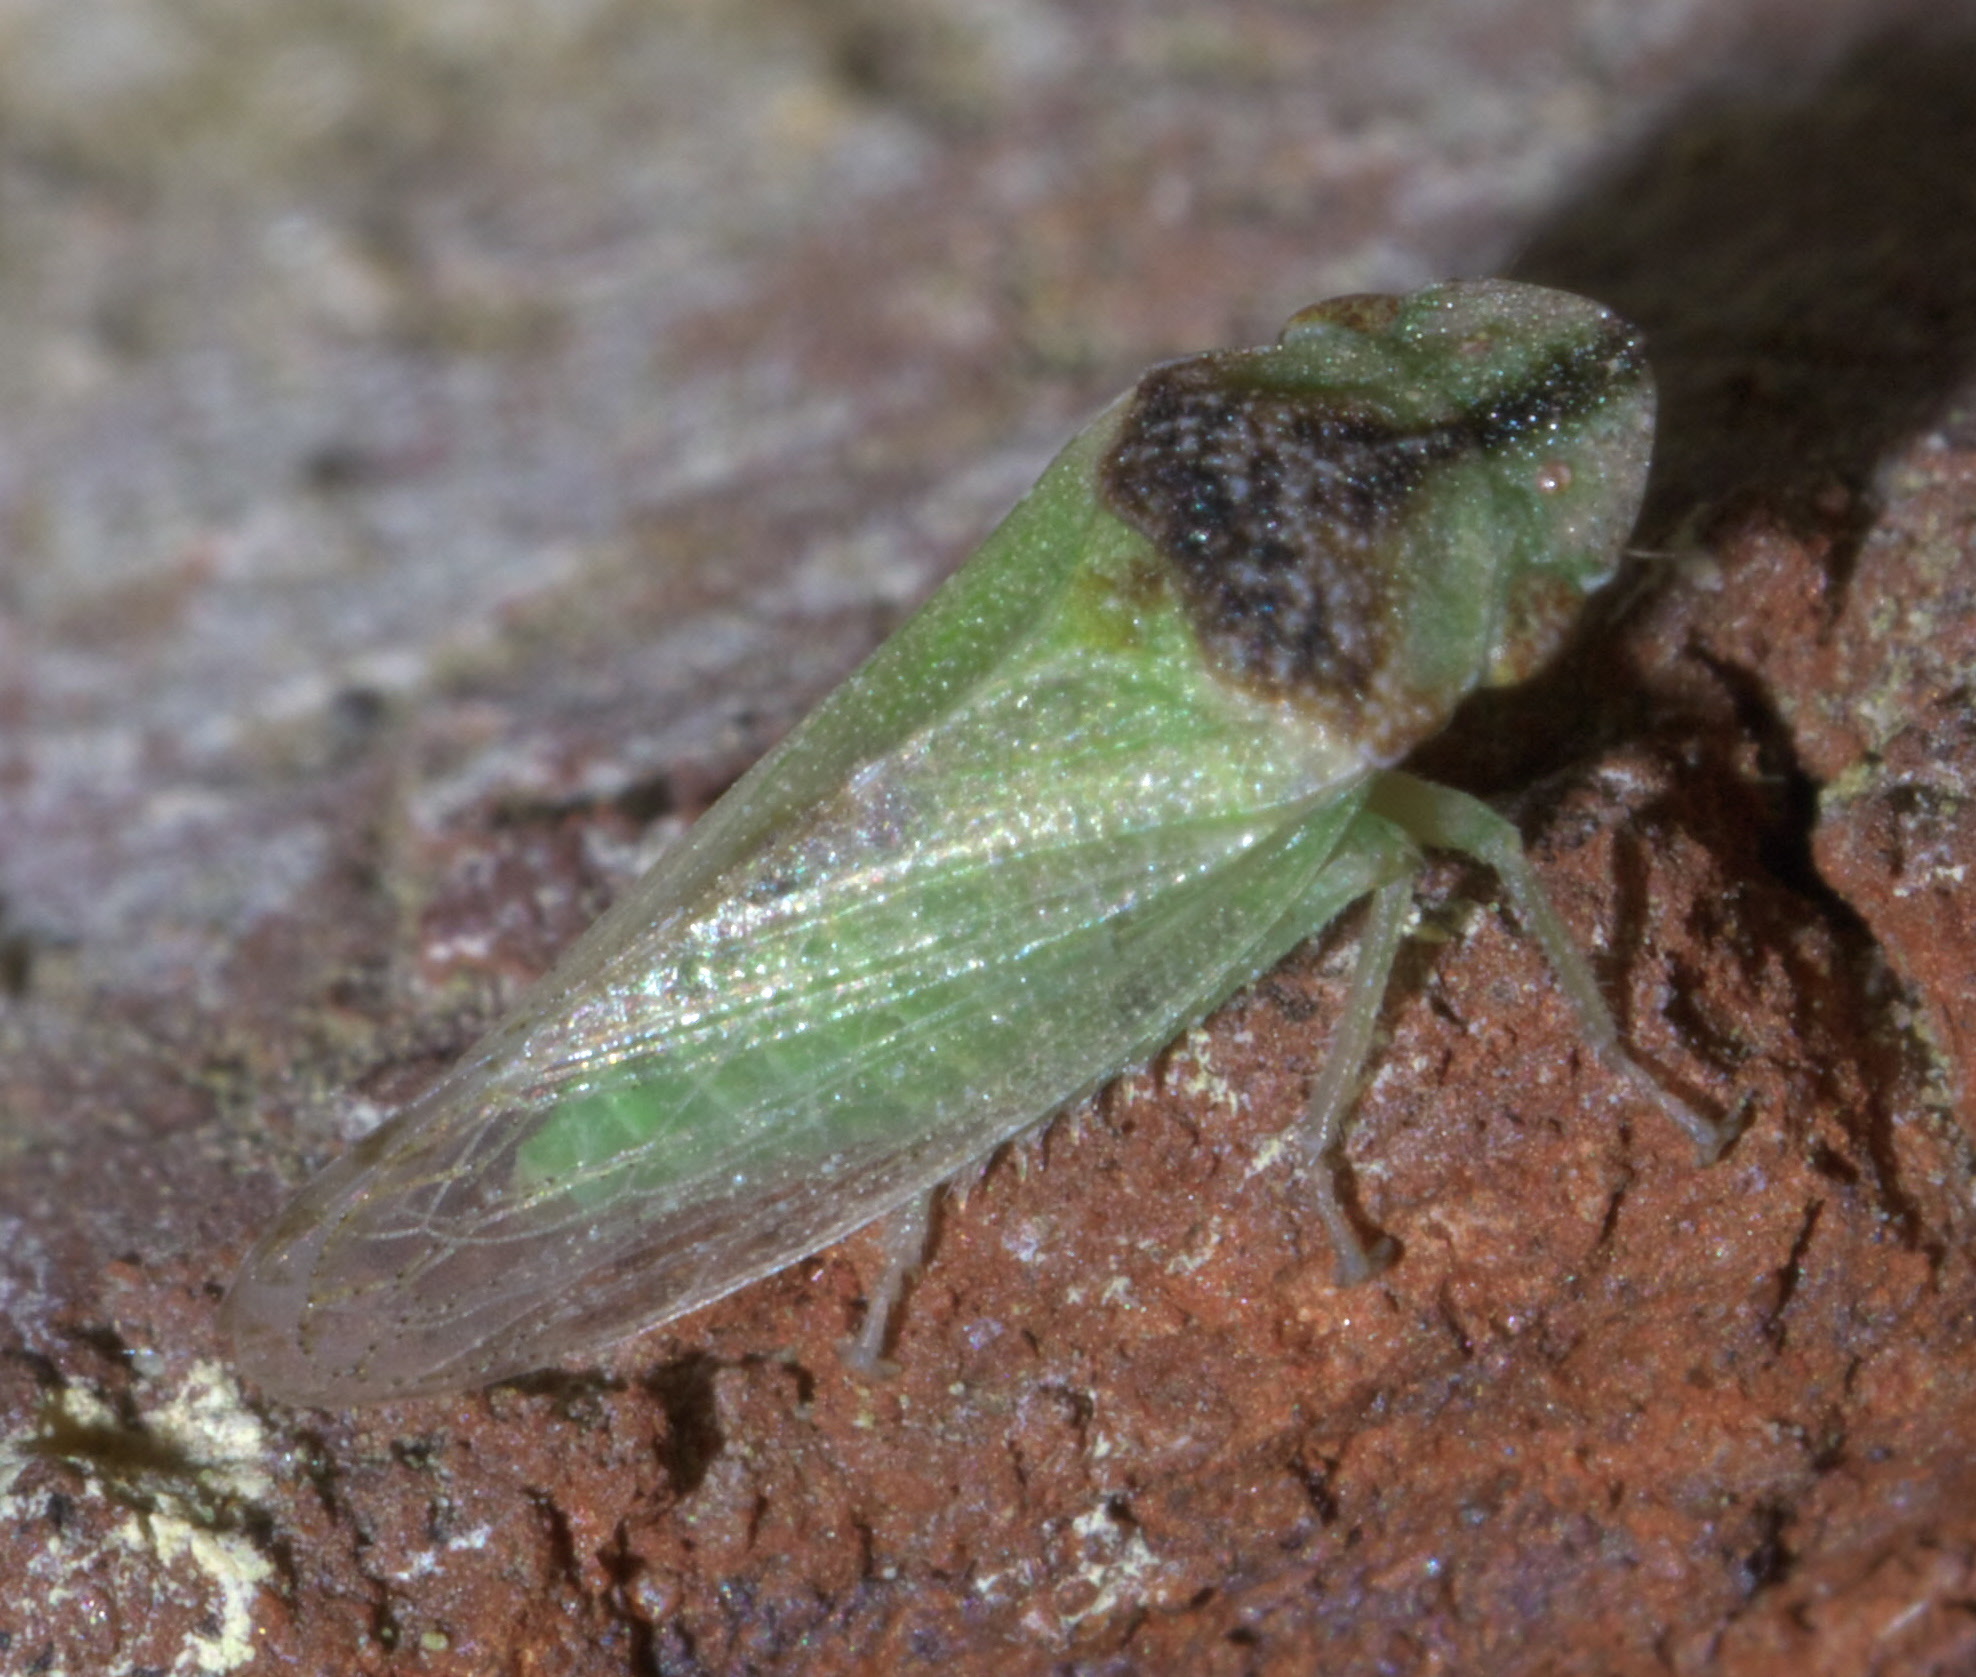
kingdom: Animalia
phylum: Arthropoda
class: Insecta
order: Hemiptera
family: Cicadellidae
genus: Xerophloea
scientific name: Xerophloea peltata
